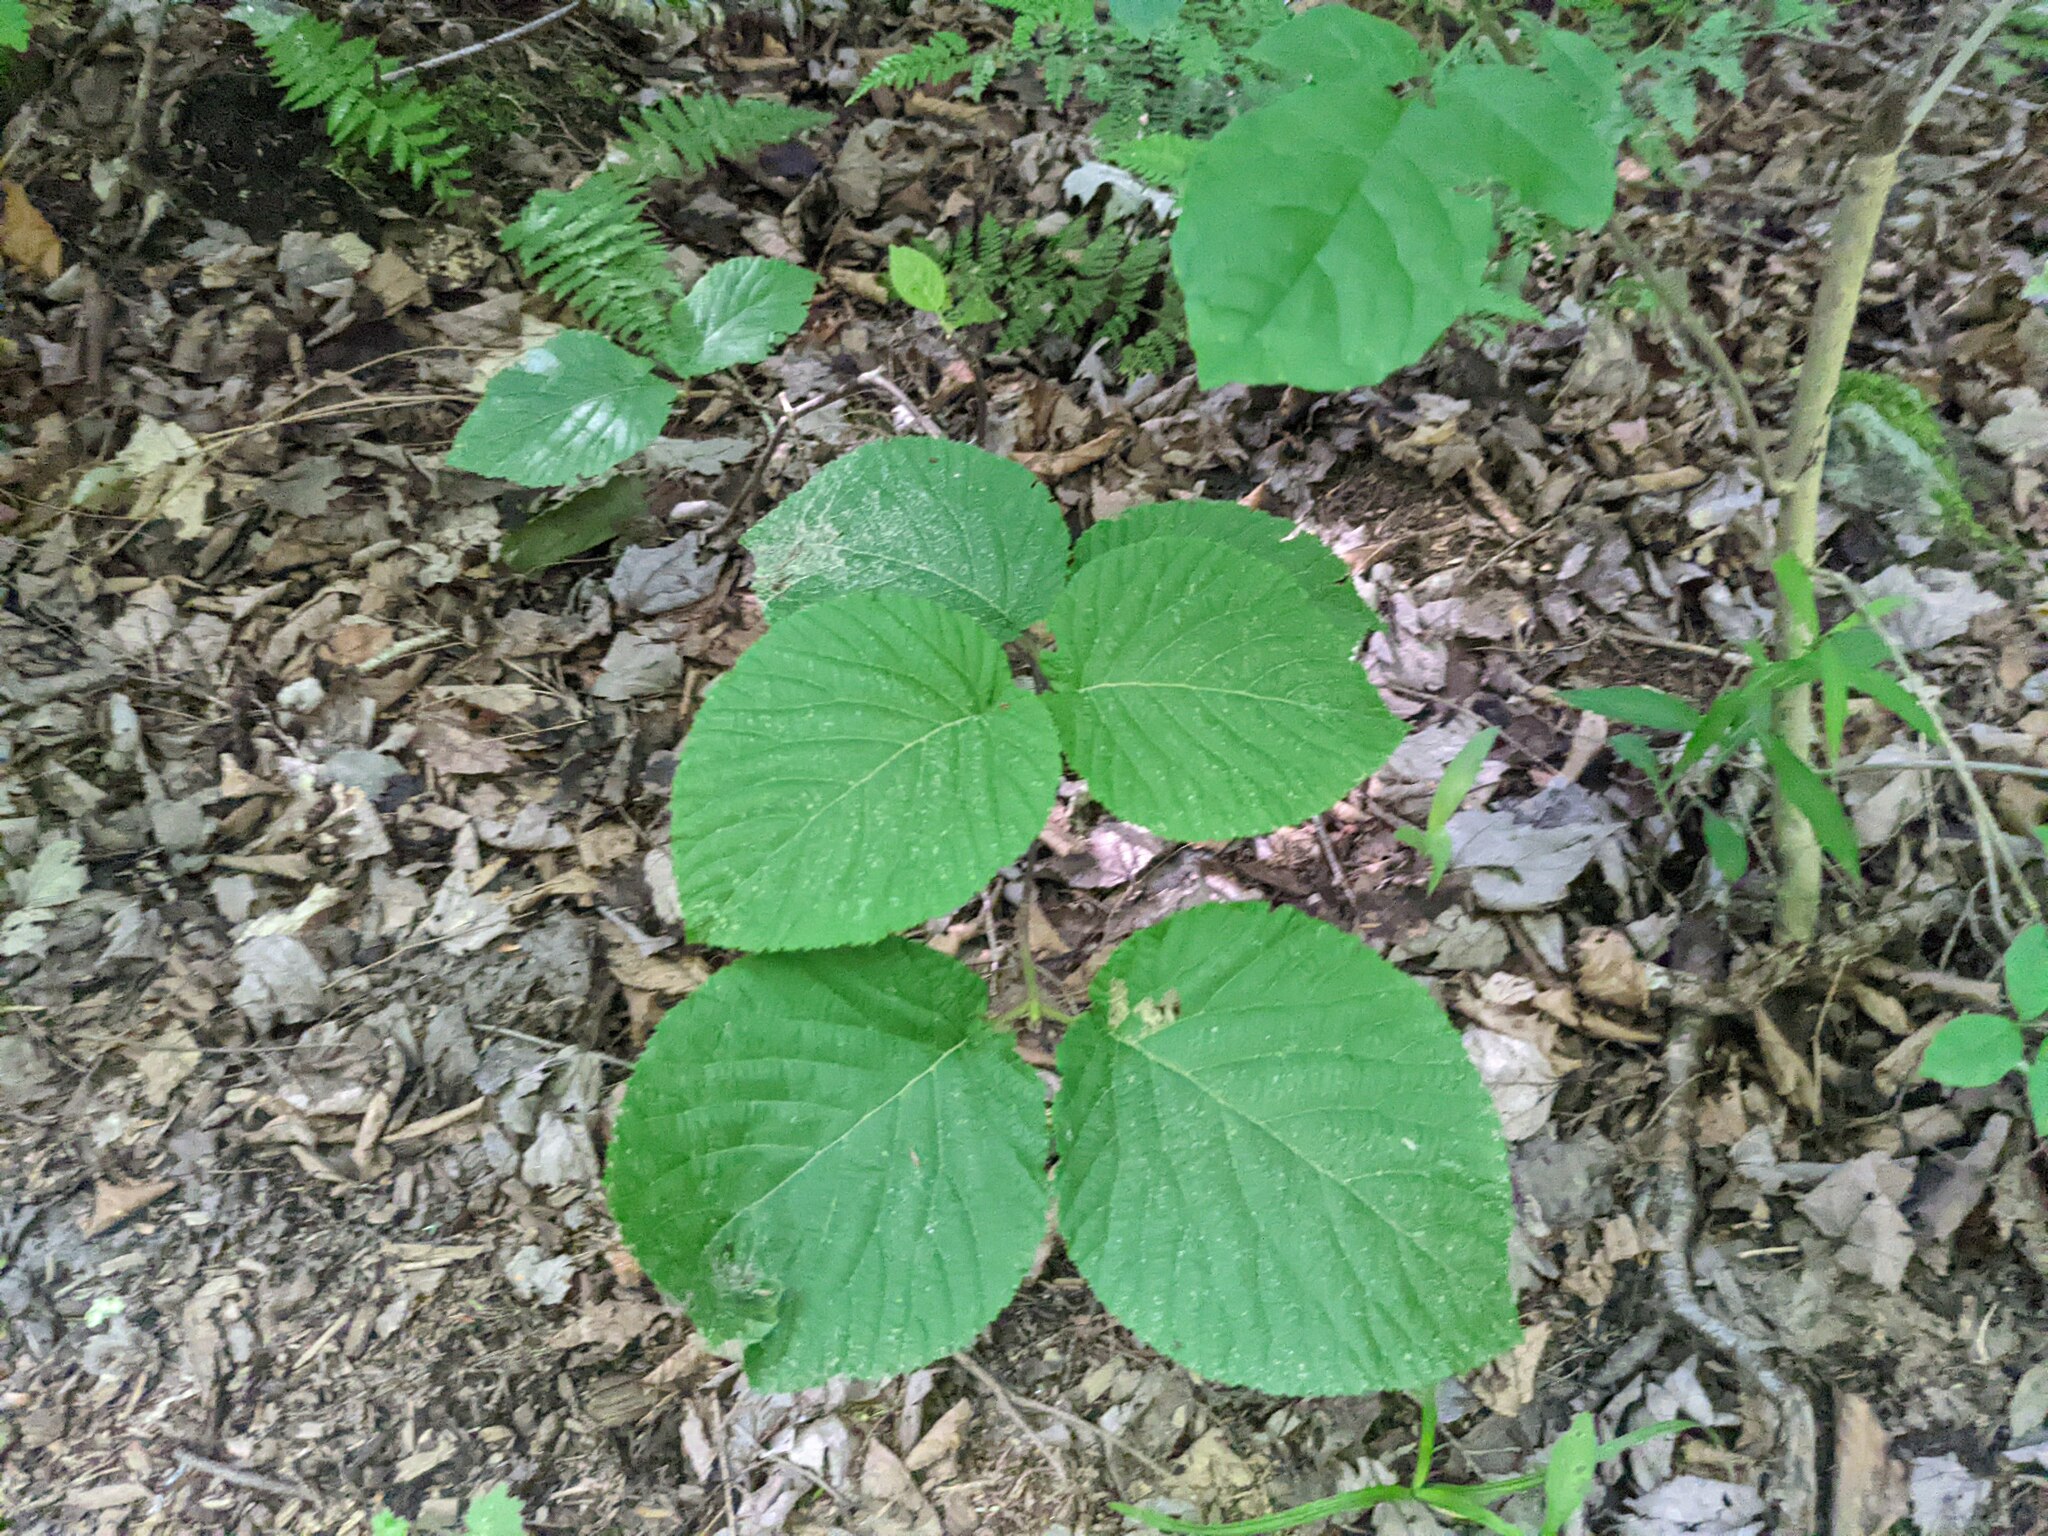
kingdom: Plantae
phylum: Tracheophyta
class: Magnoliopsida
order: Dipsacales
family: Viburnaceae
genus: Viburnum
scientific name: Viburnum lantanoides
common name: Hobblebush
